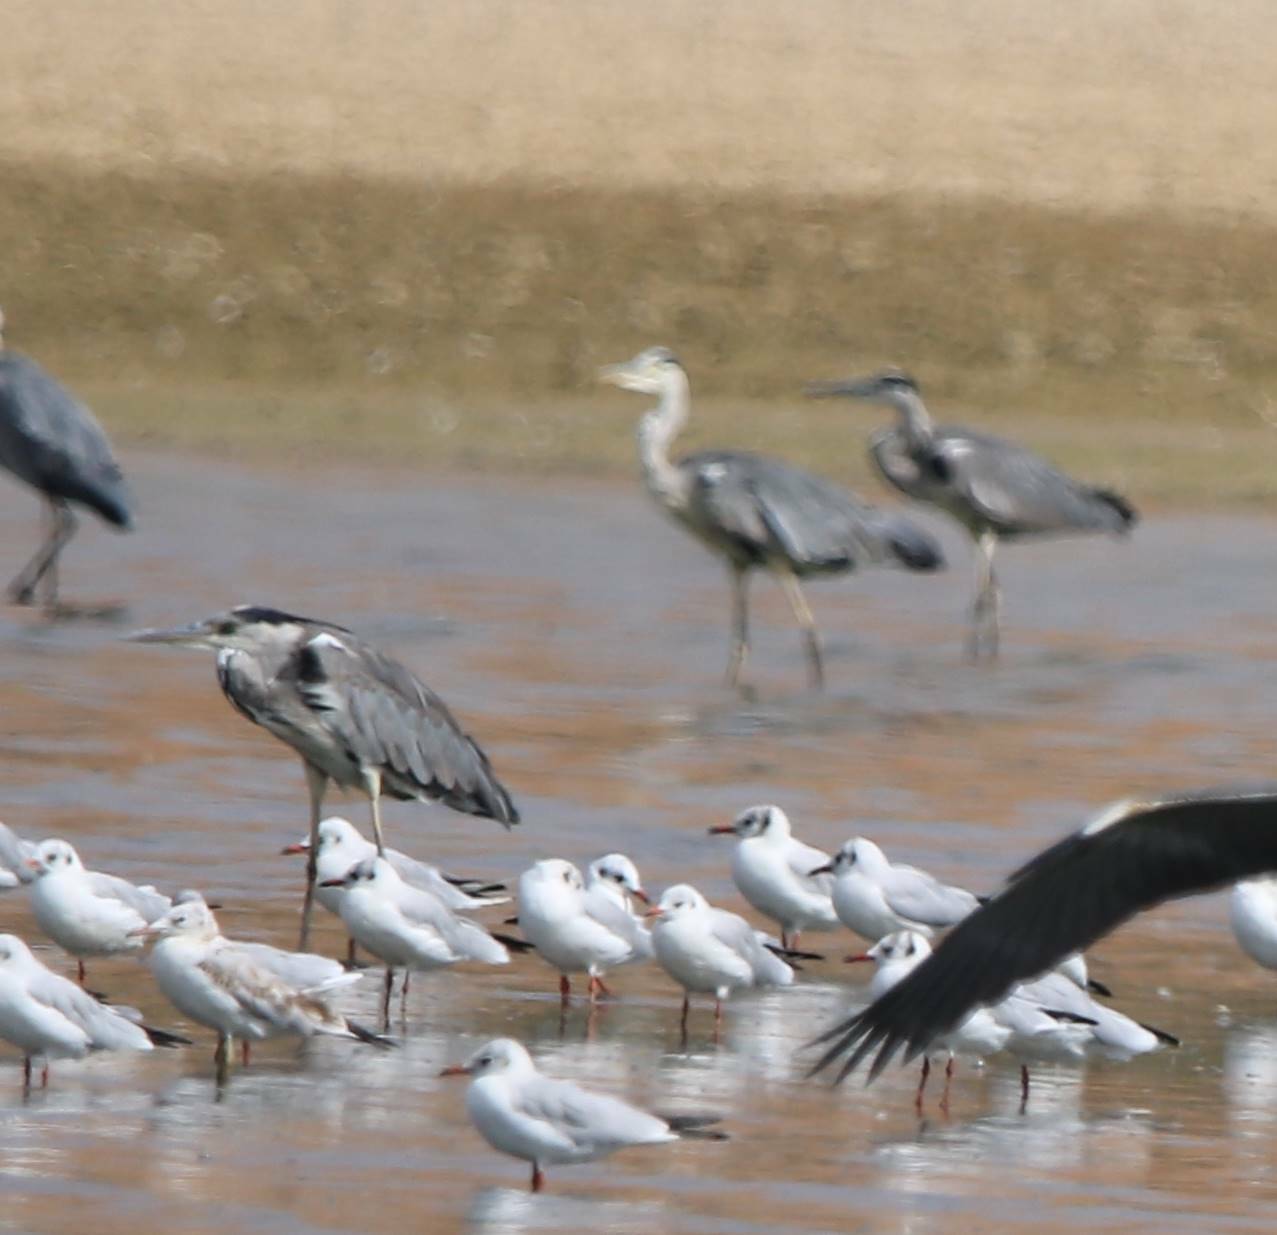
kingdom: Animalia
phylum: Chordata
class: Aves
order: Pelecaniformes
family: Ardeidae
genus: Ardea
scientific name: Ardea cinerea
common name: Grey heron
